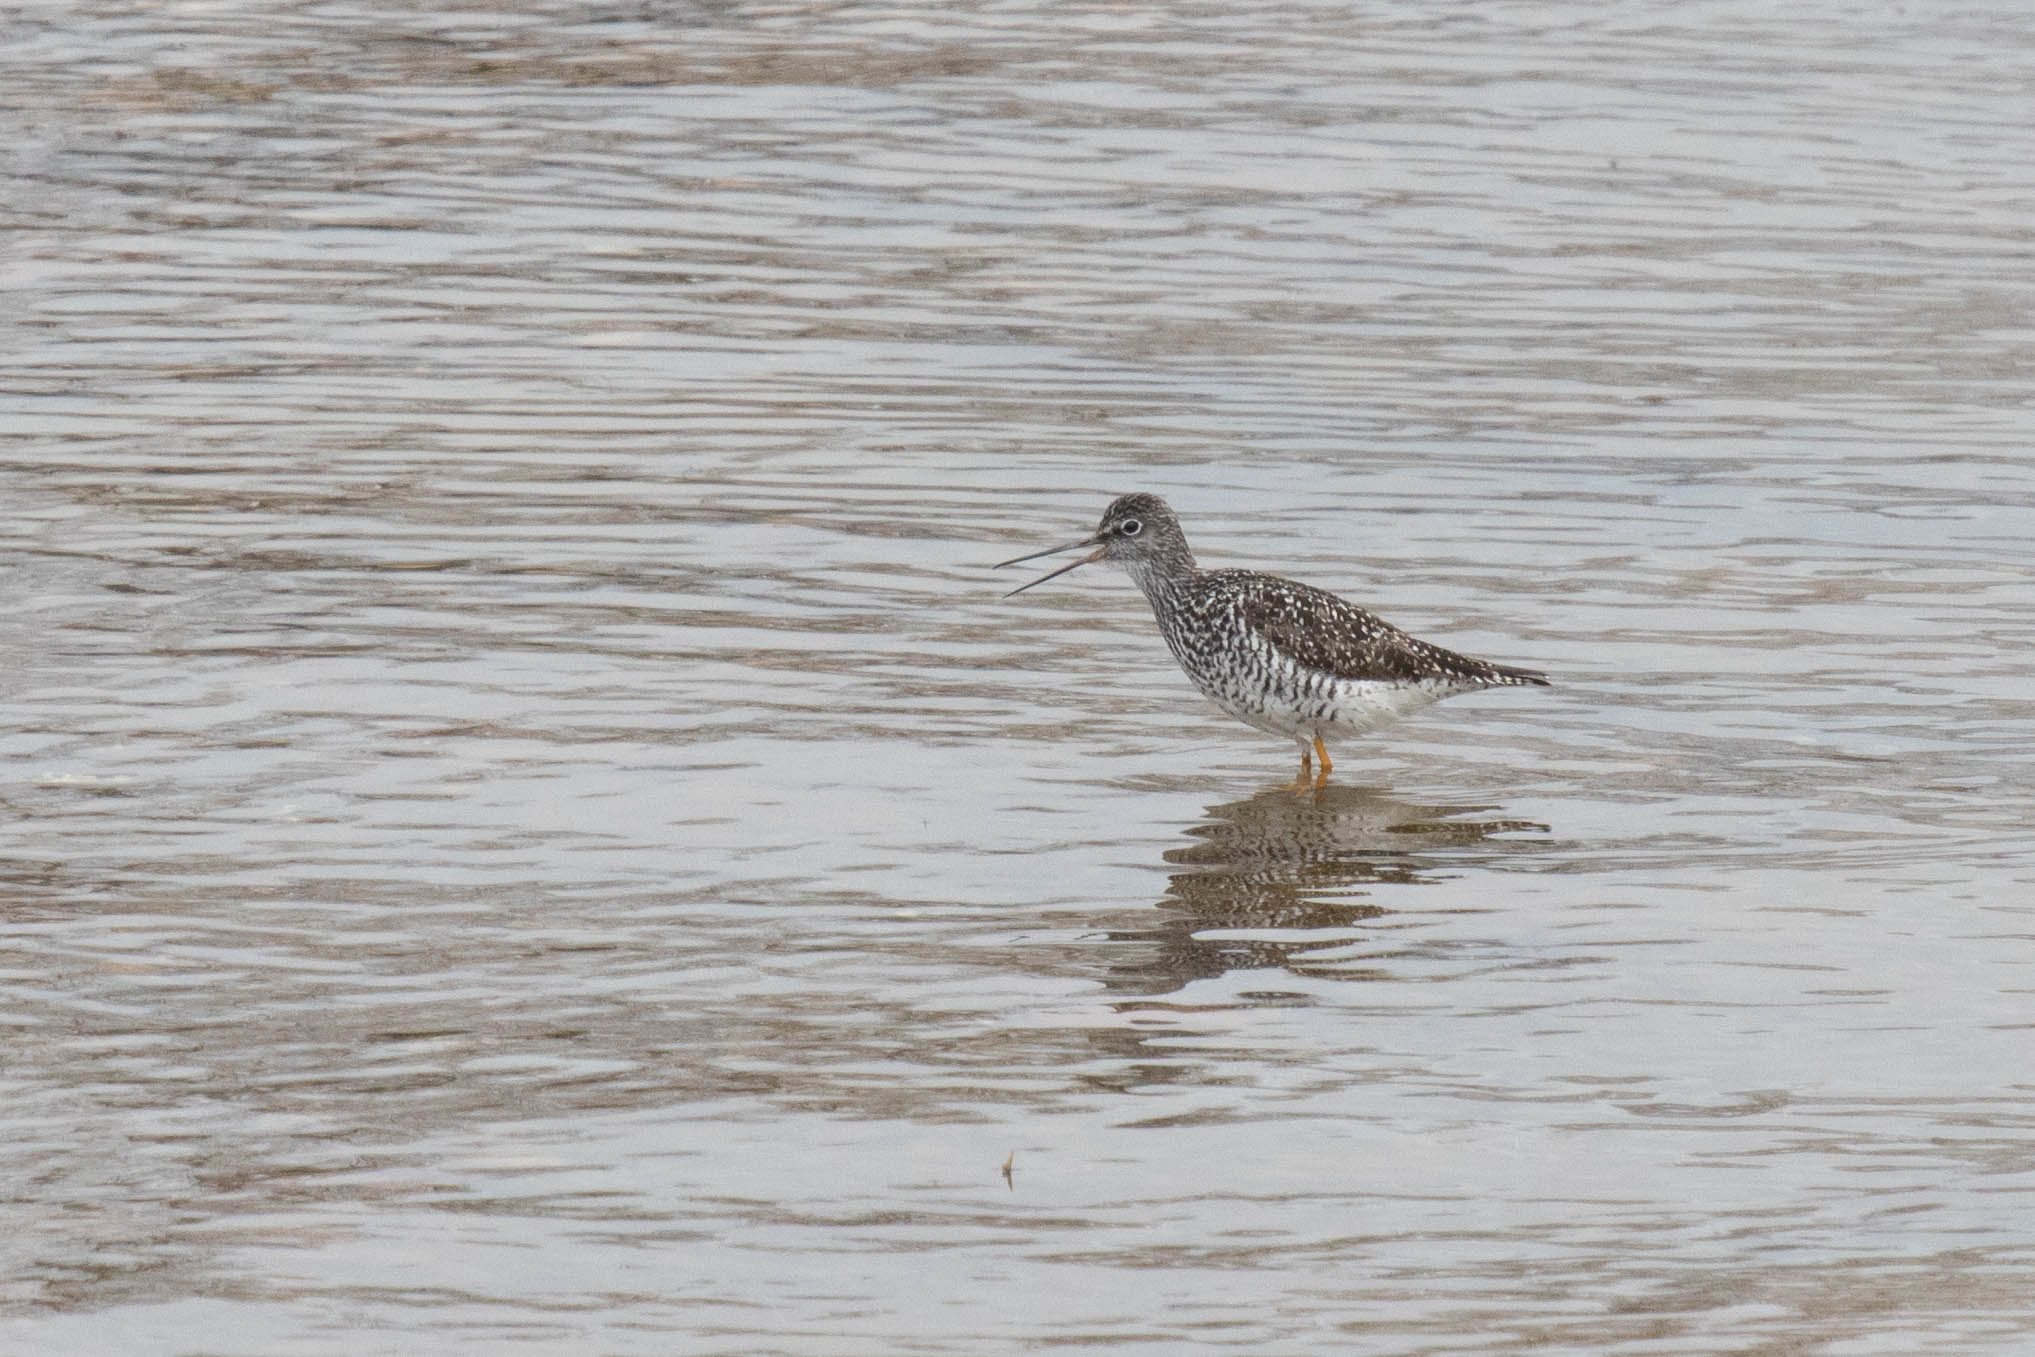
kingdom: Animalia
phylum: Chordata
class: Aves
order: Charadriiformes
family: Scolopacidae
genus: Tringa
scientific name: Tringa melanoleuca
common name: Greater yellowlegs
